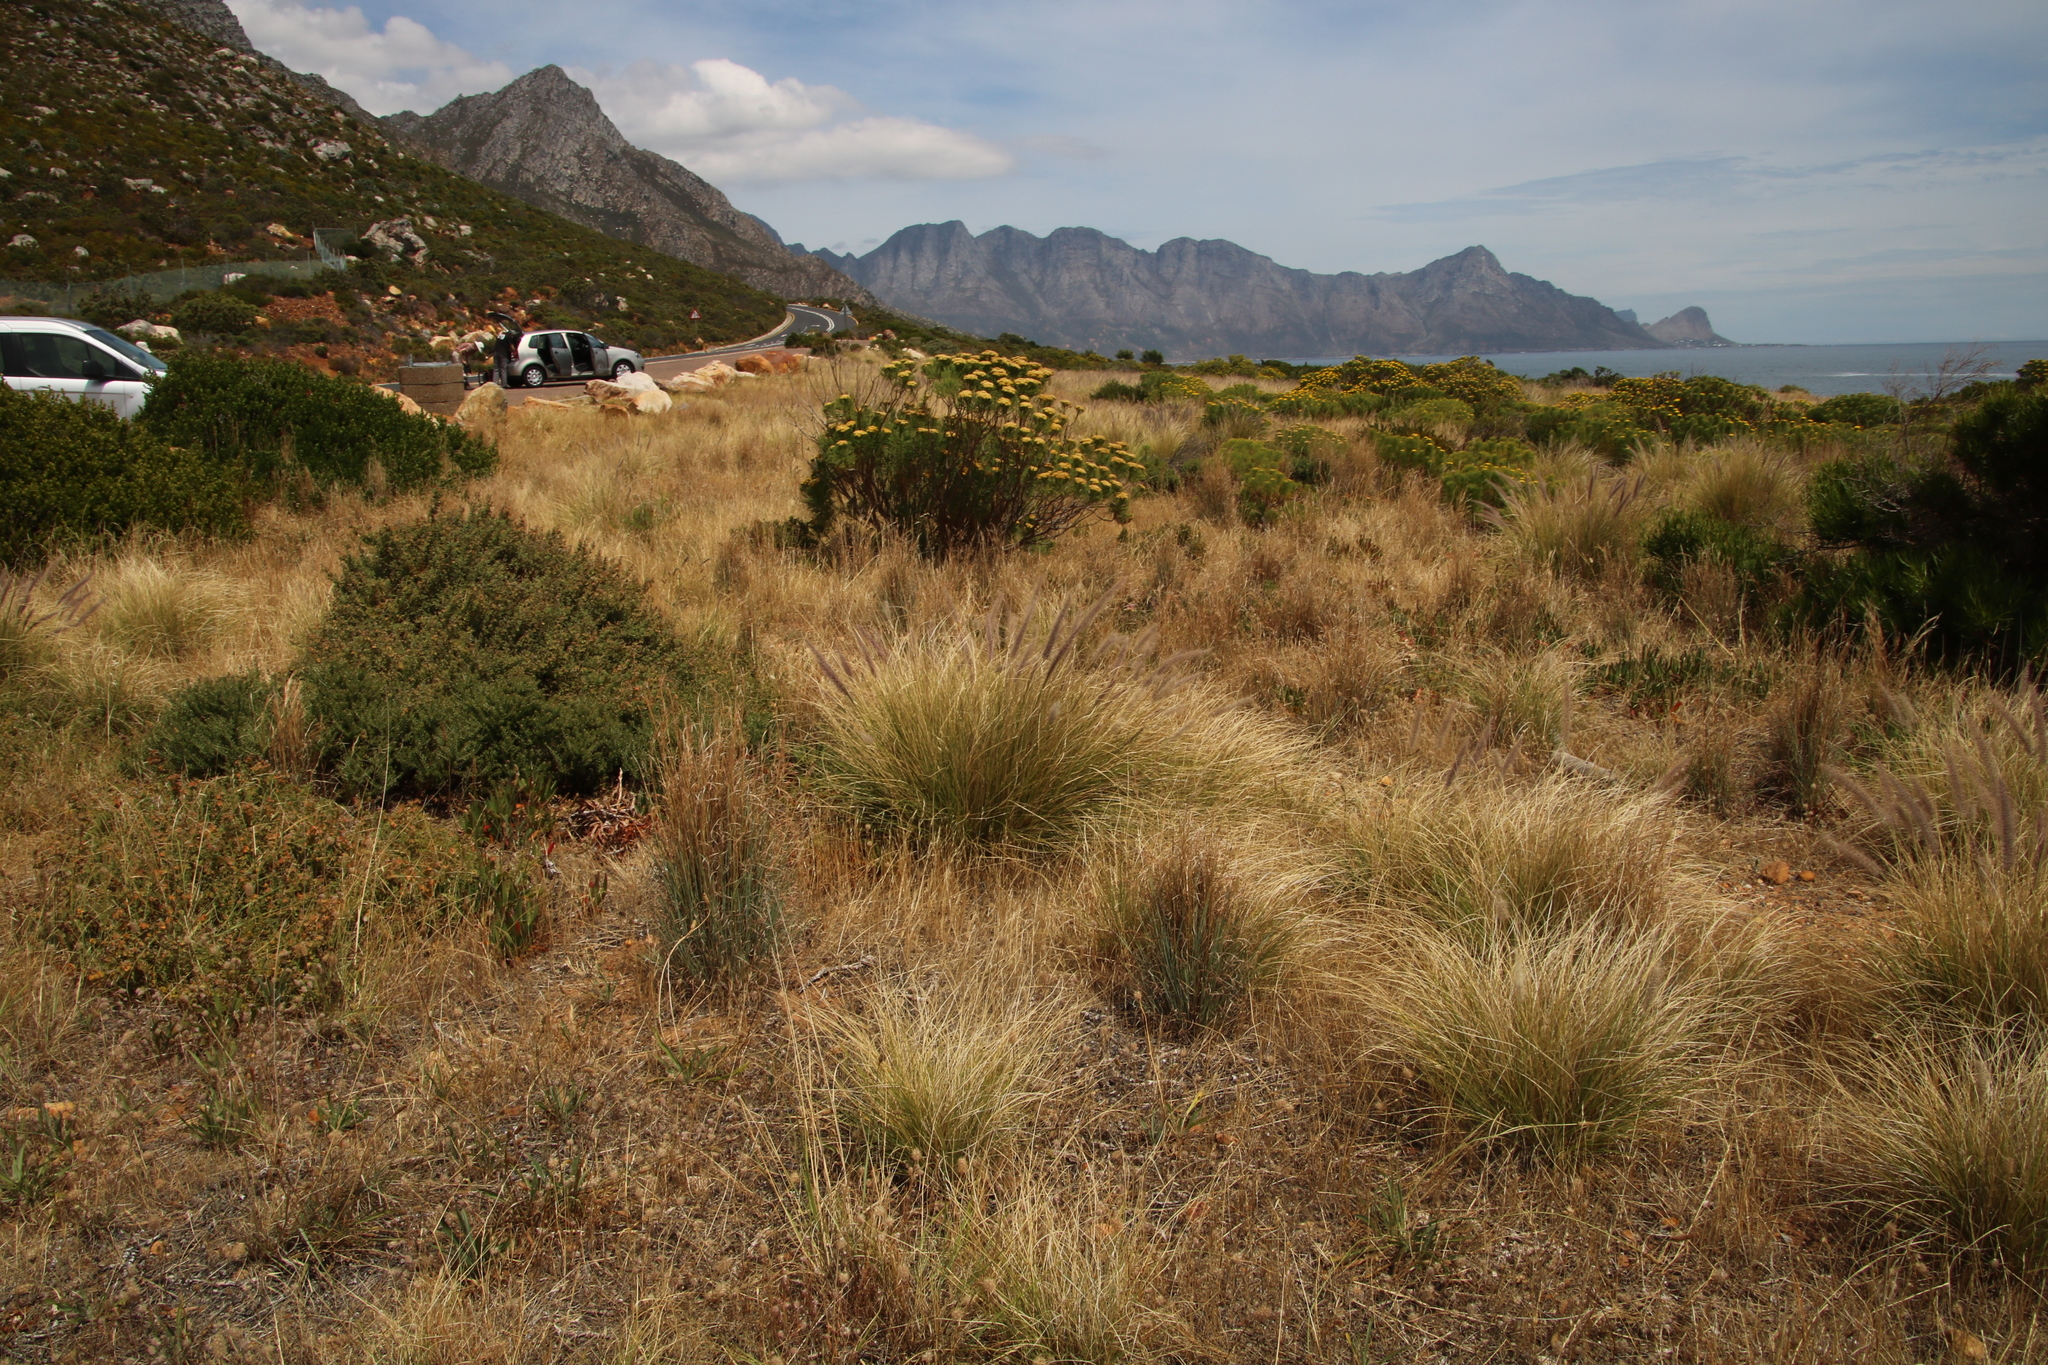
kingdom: Plantae
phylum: Tracheophyta
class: Liliopsida
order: Poales
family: Poaceae
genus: Cenchrus
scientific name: Cenchrus setaceus
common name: Crimson fountaingrass
